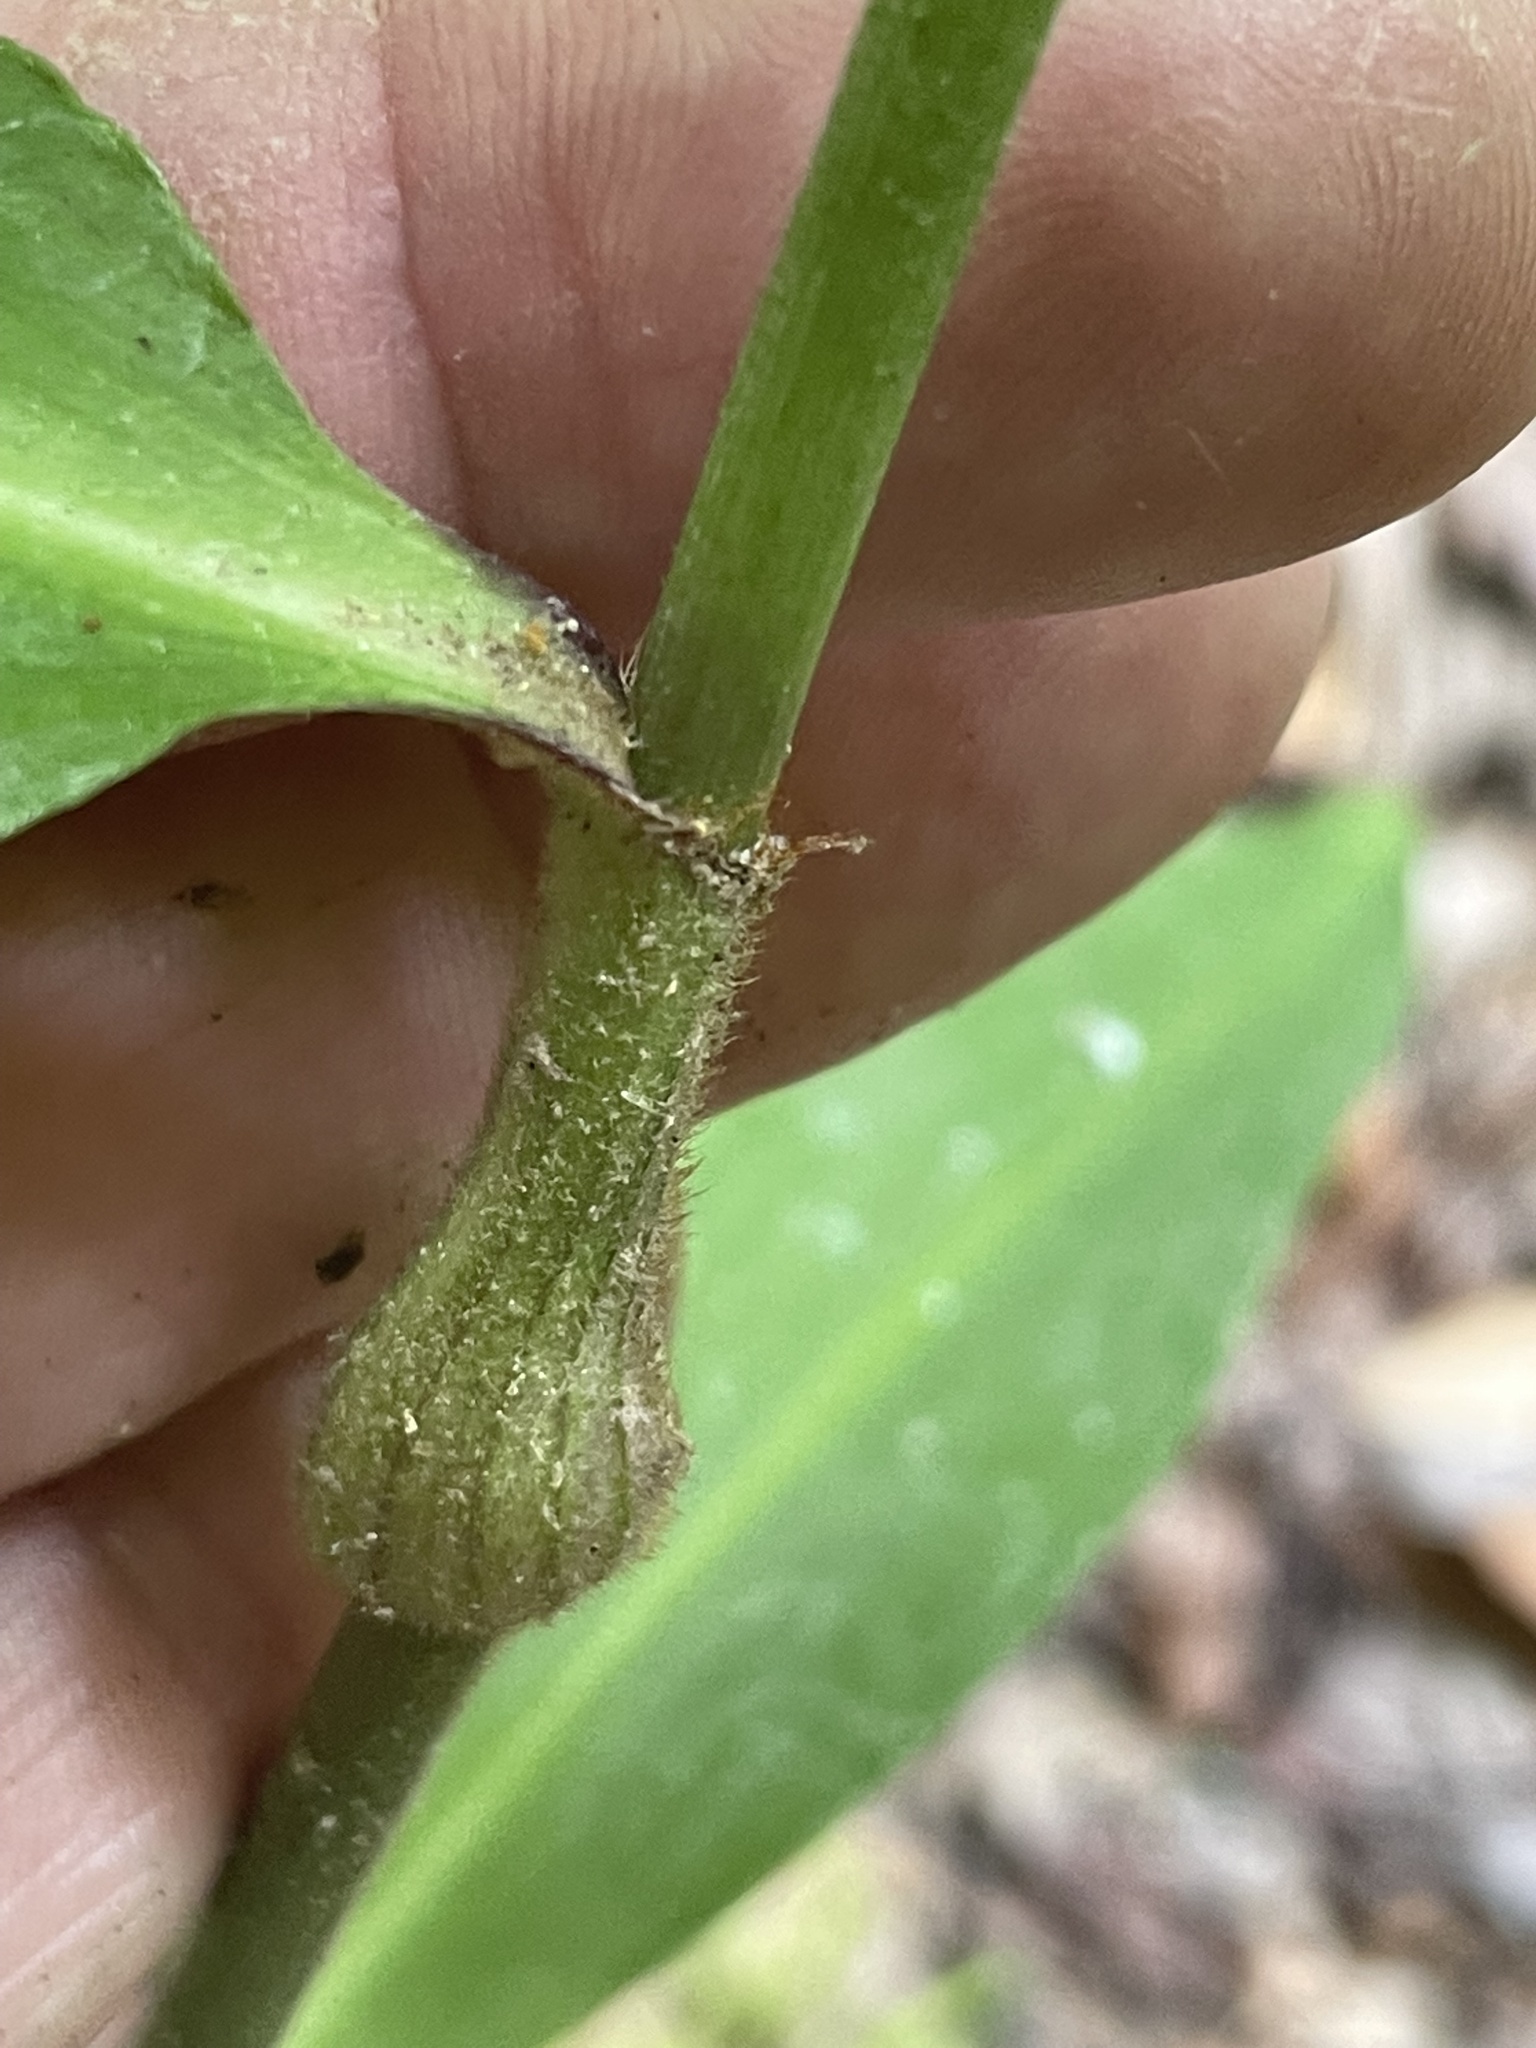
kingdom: Plantae
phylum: Tracheophyta
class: Liliopsida
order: Commelinales
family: Commelinaceae
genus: Commelina
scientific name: Commelina virginica
